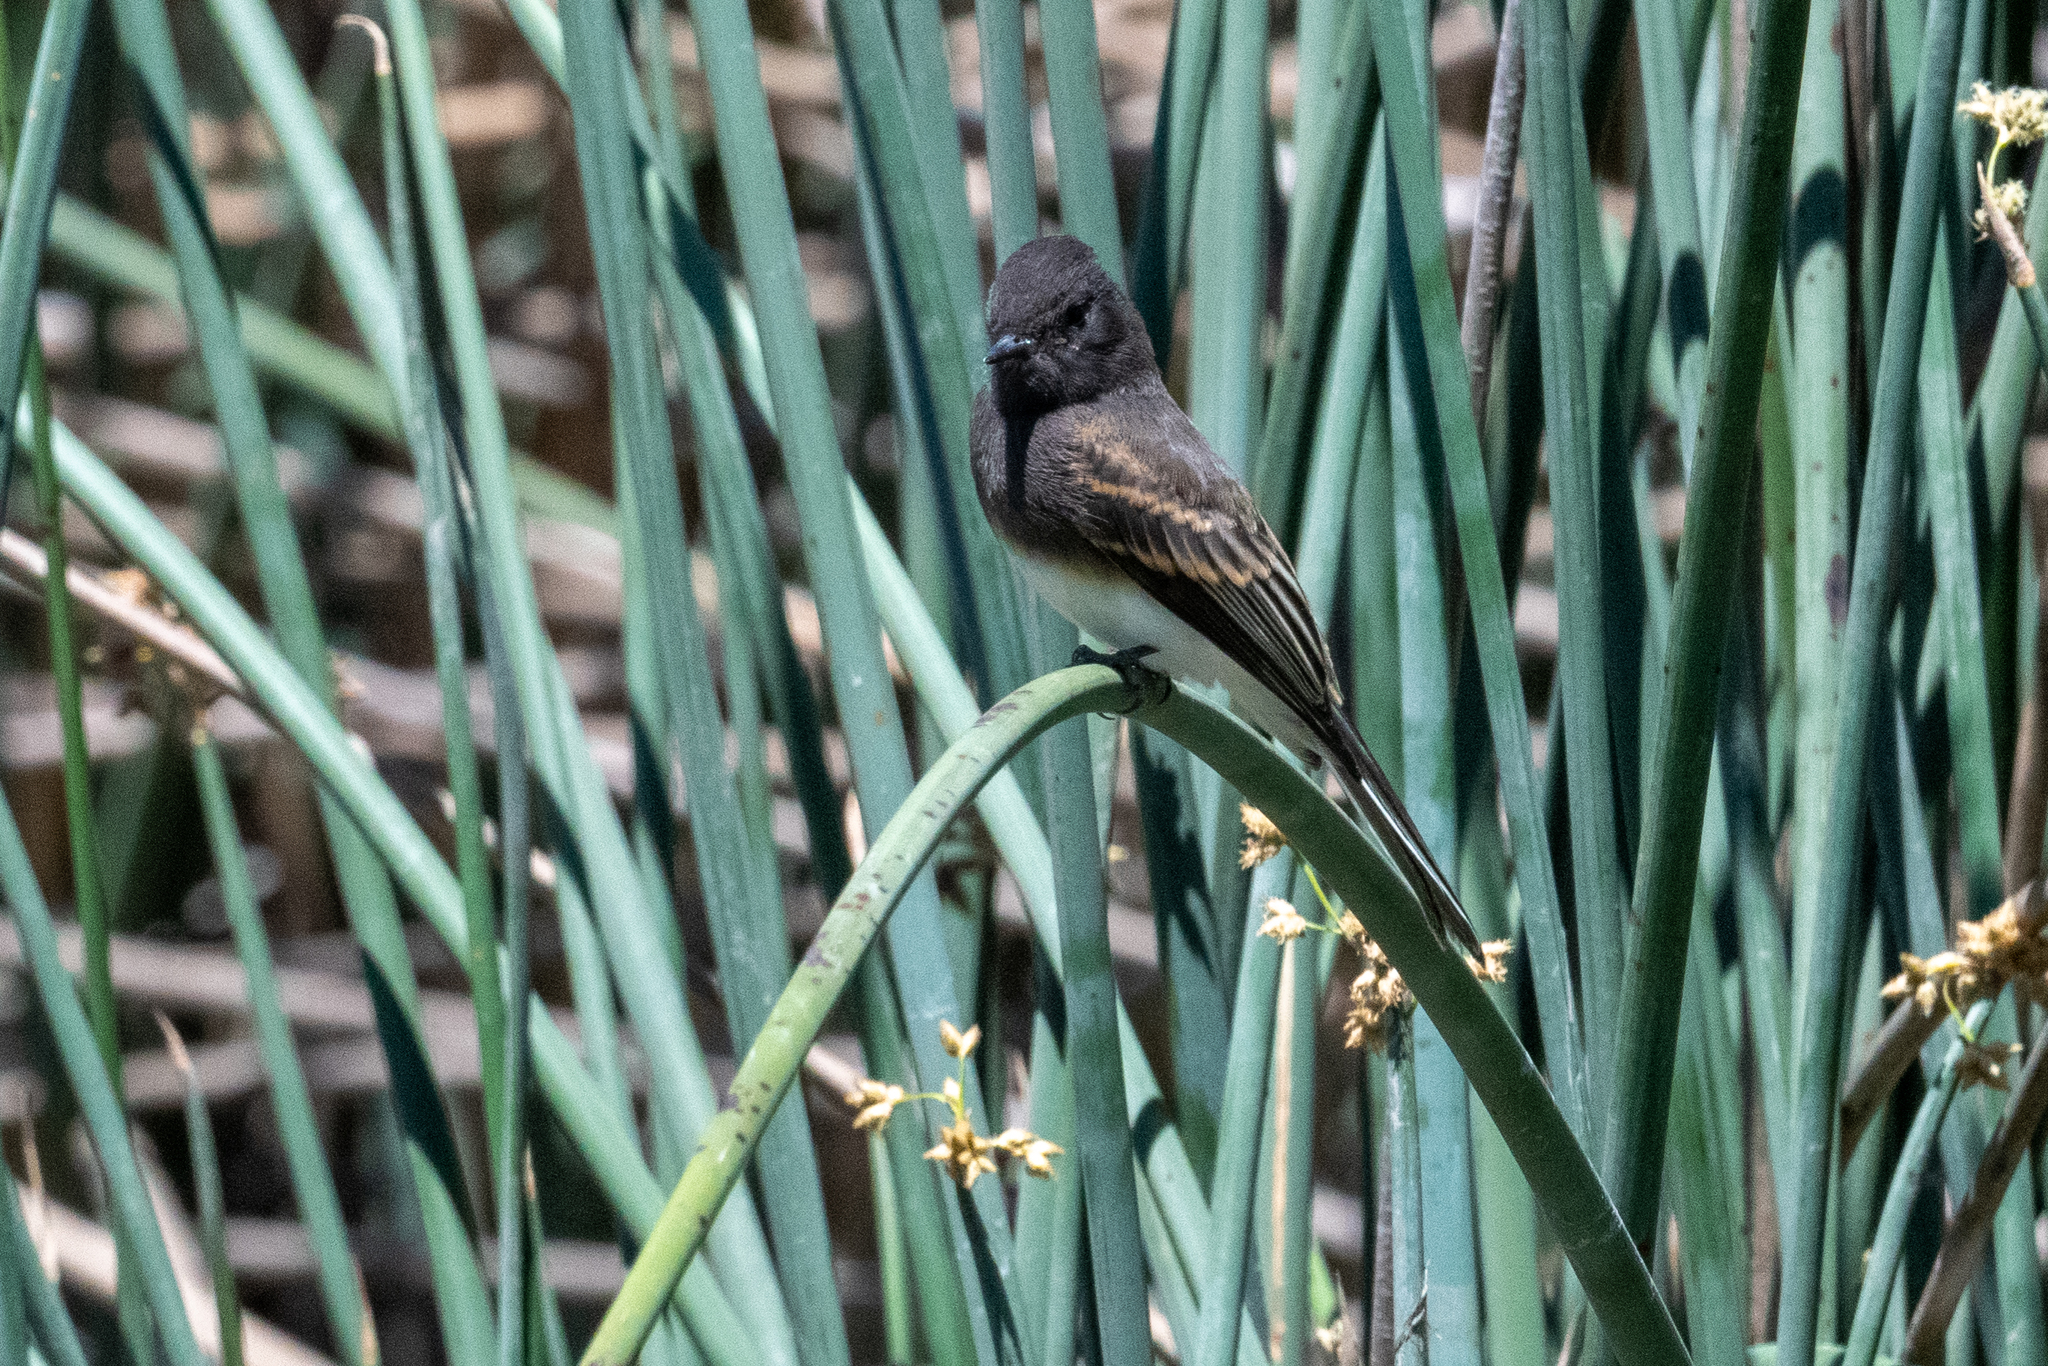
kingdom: Animalia
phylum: Chordata
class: Aves
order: Passeriformes
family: Tyrannidae
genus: Sayornis
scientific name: Sayornis nigricans
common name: Black phoebe
